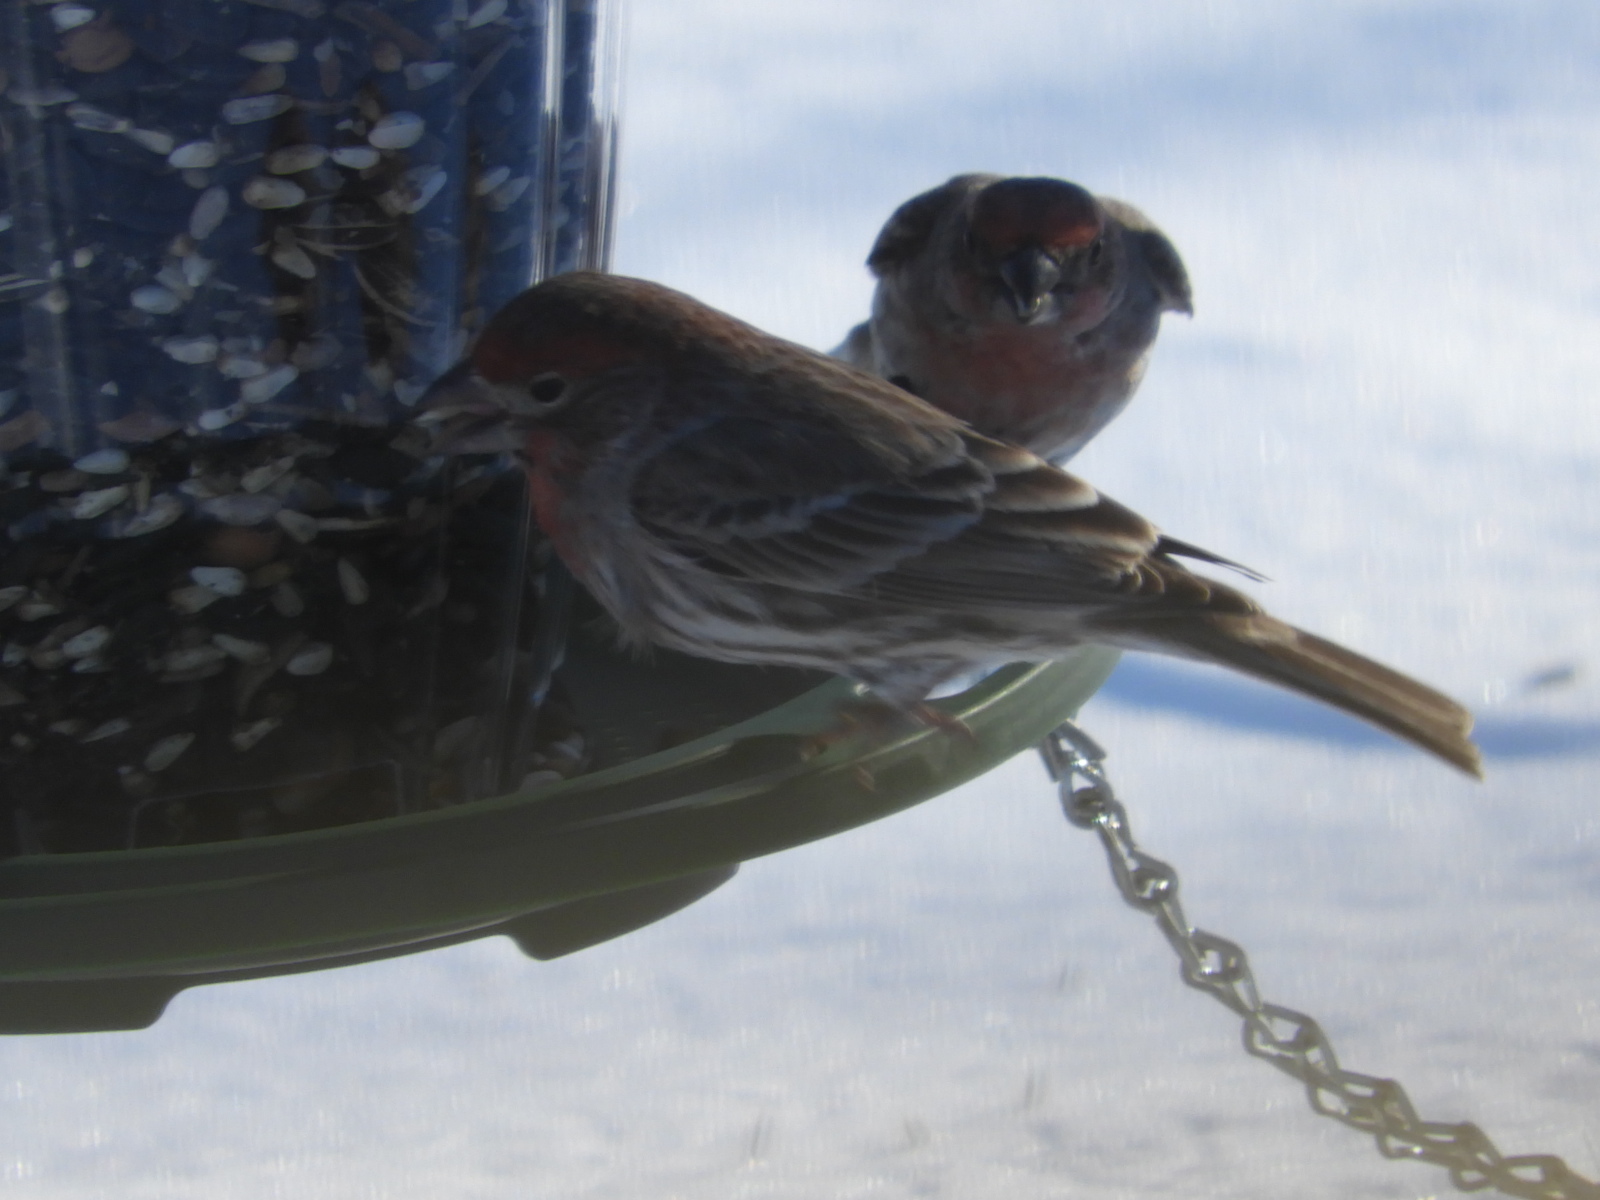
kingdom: Animalia
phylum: Chordata
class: Aves
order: Passeriformes
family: Fringillidae
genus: Haemorhous
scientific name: Haemorhous mexicanus
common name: House finch
